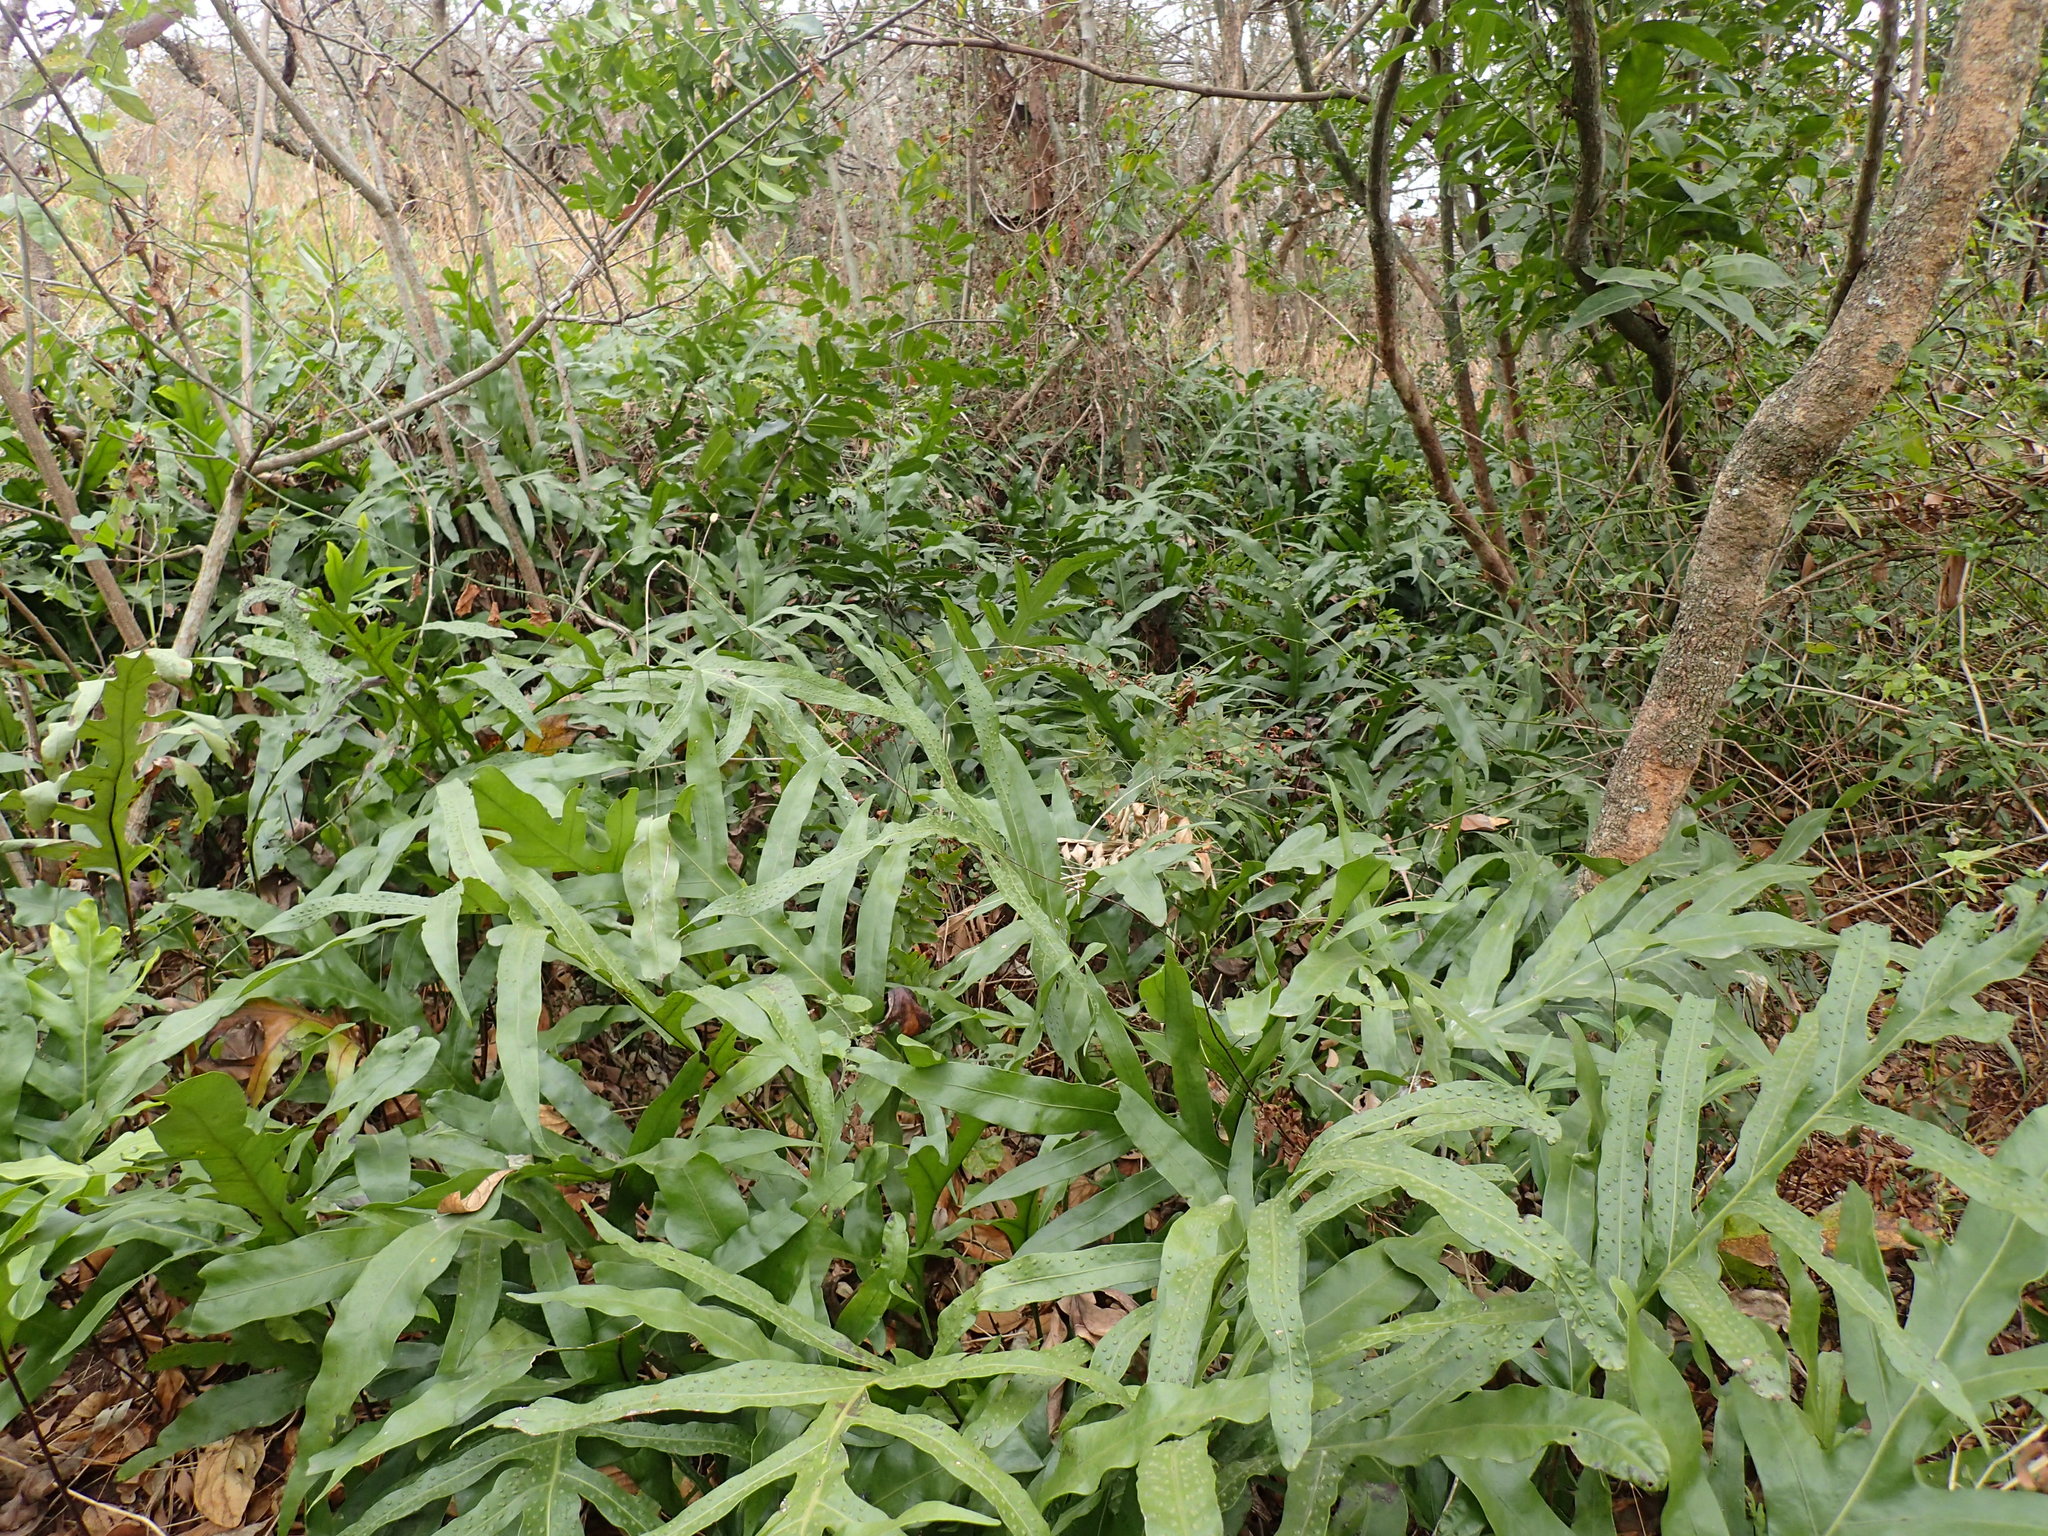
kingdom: Plantae
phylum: Tracheophyta
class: Polypodiopsida
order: Polypodiales
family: Polypodiaceae
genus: Microsorum
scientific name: Microsorum scolopendria
